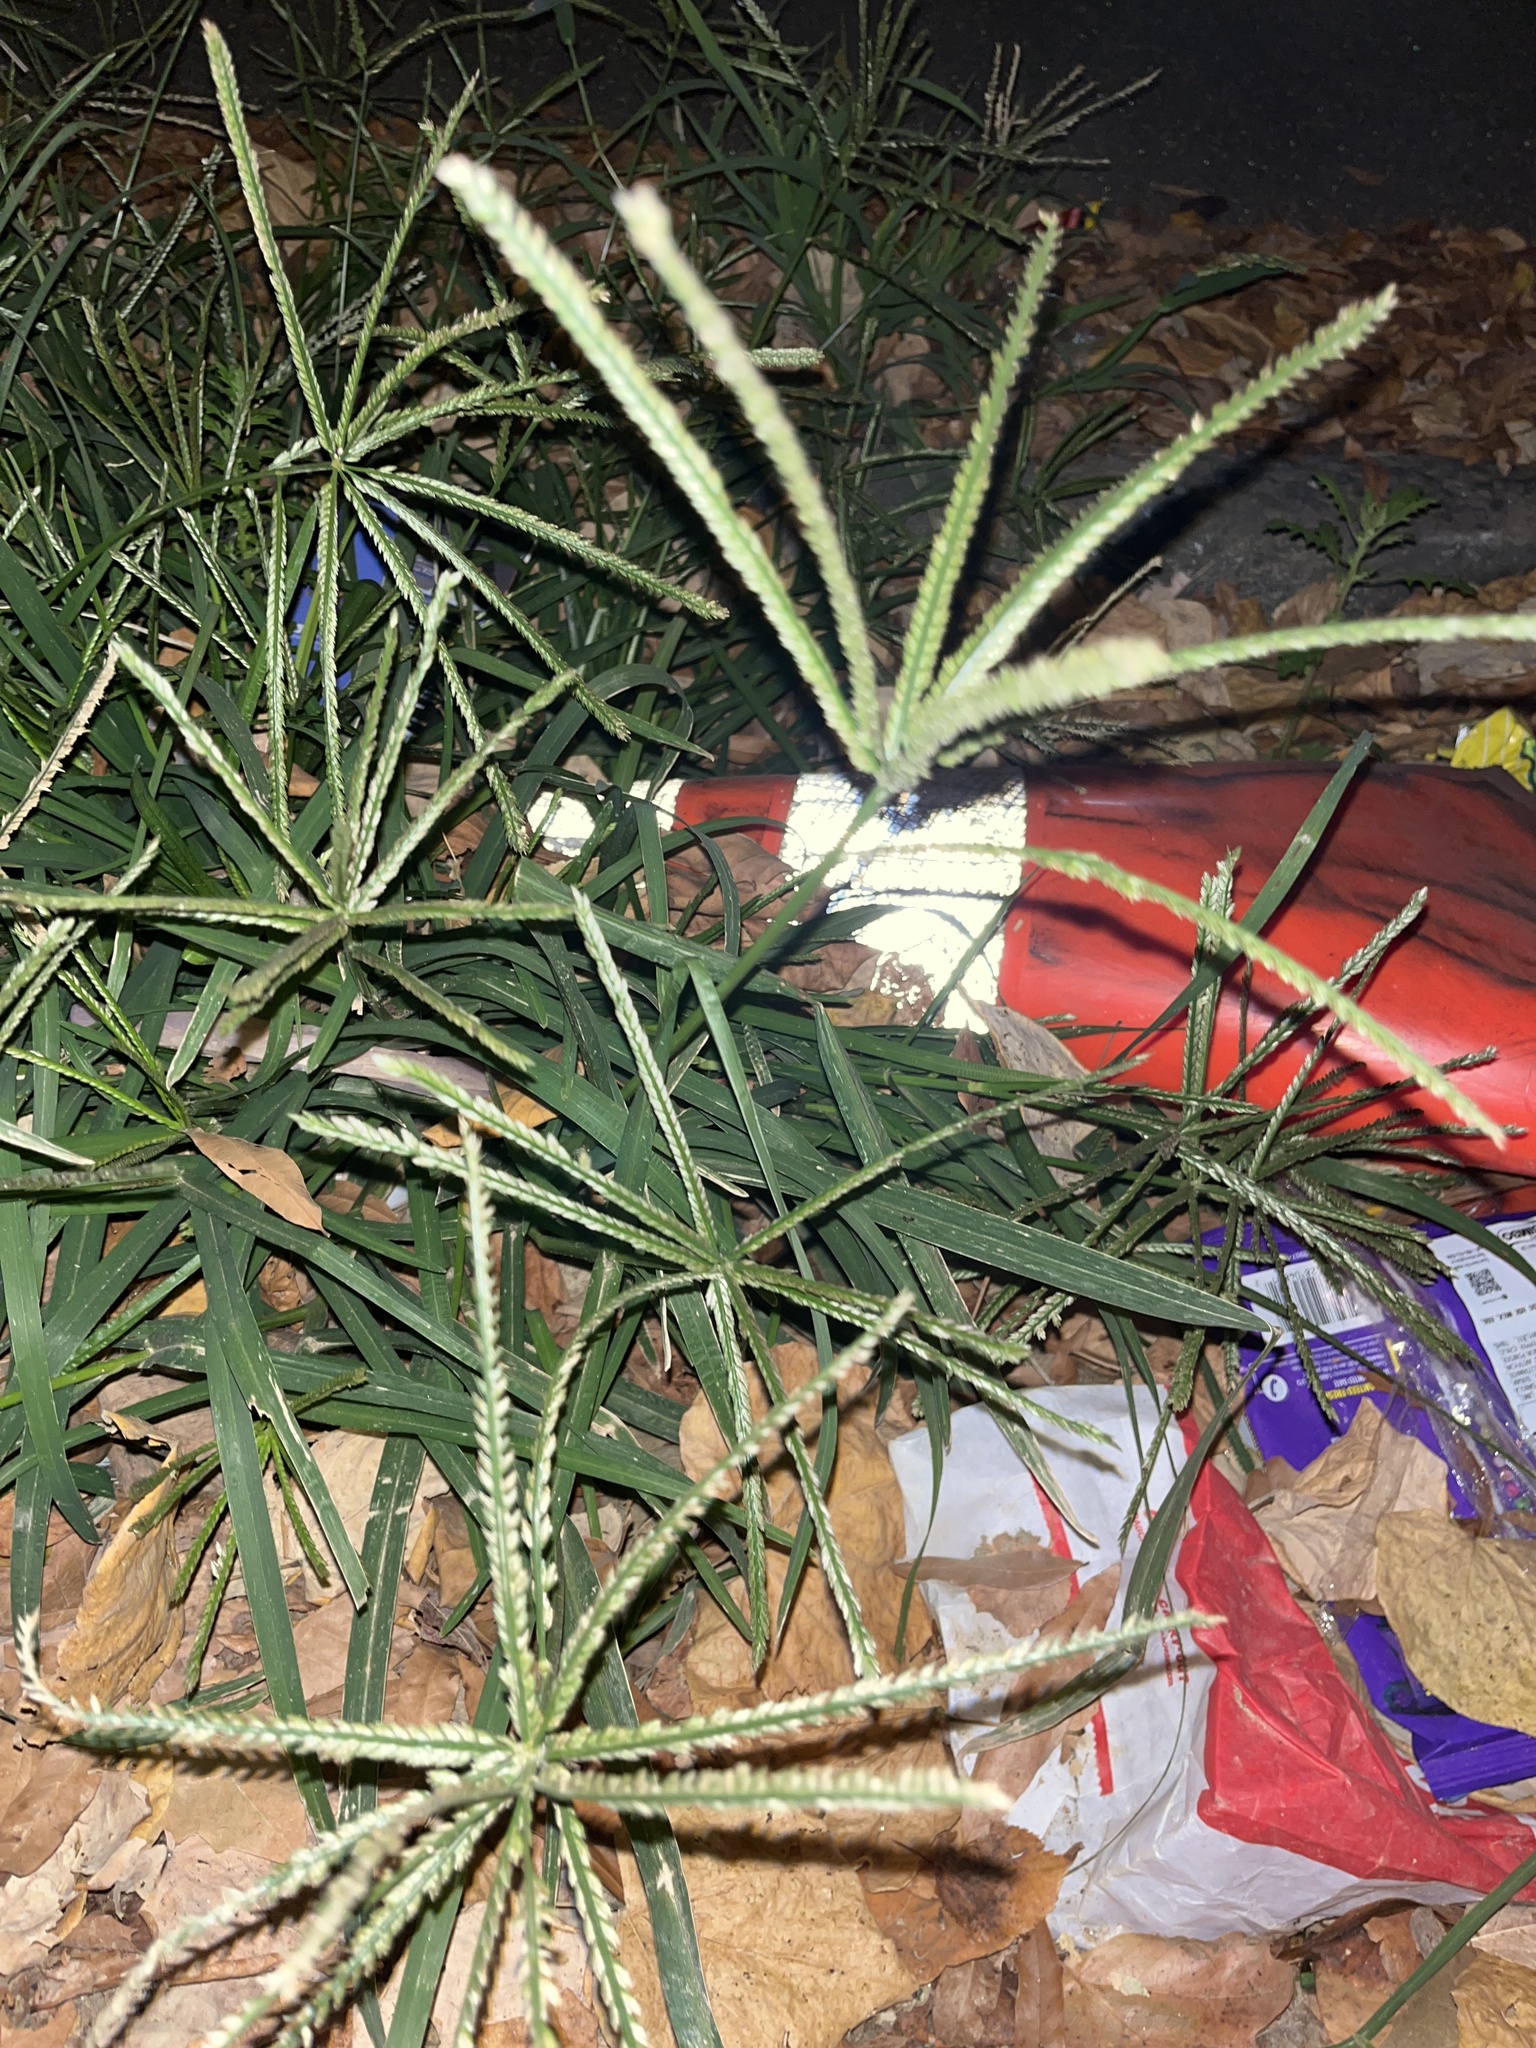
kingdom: Plantae
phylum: Tracheophyta
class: Liliopsida
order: Poales
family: Poaceae
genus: Eleusine
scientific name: Eleusine indica
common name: Yard-grass
